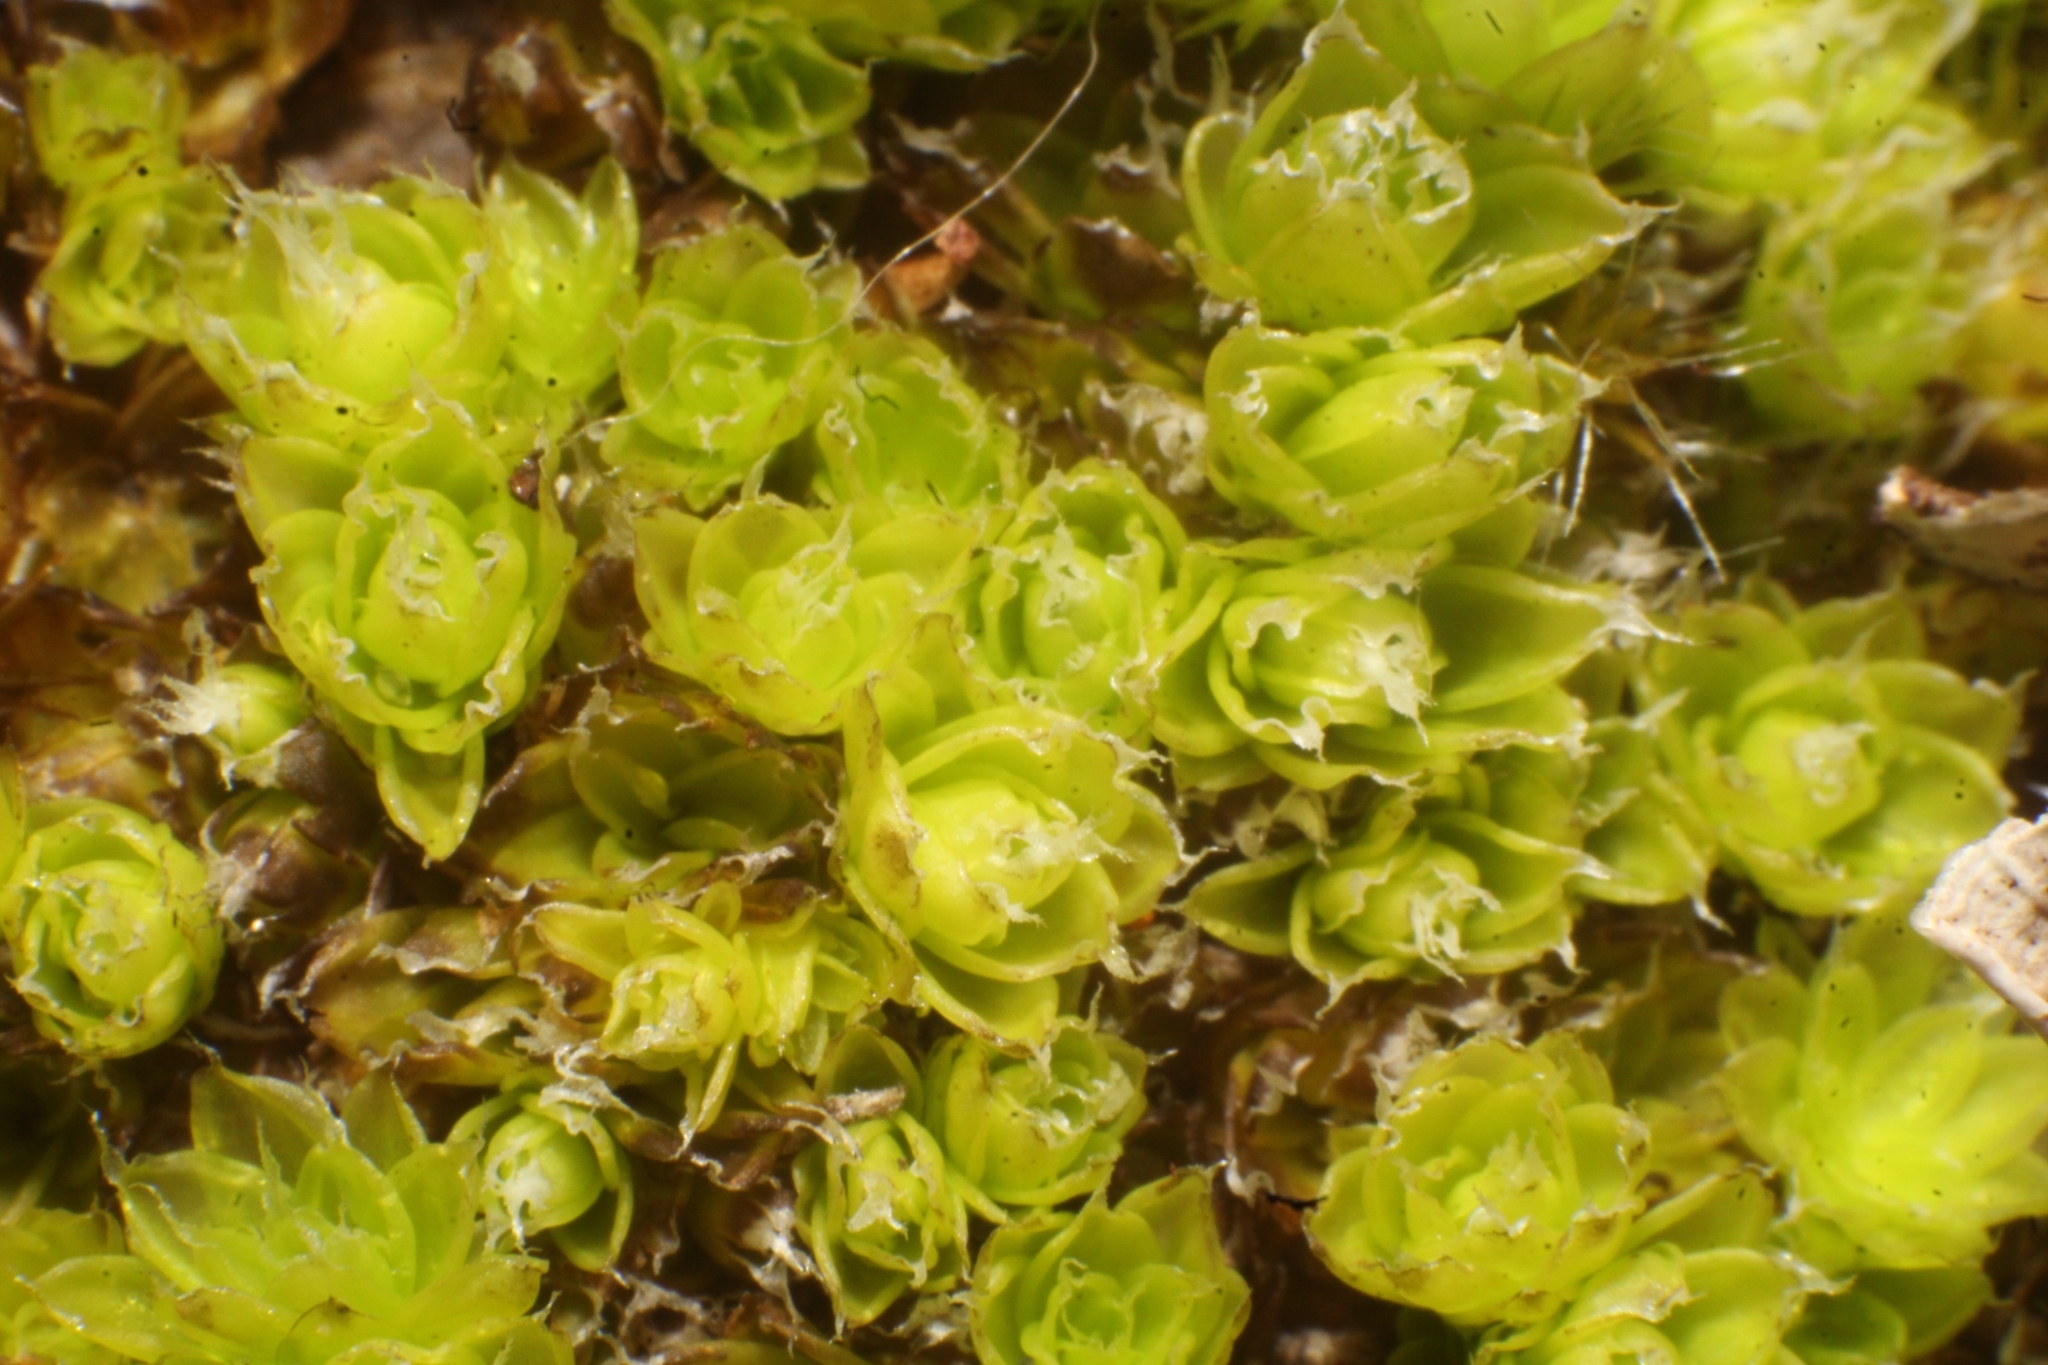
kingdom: Plantae
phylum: Bryophyta
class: Bryopsida
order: Pottiales
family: Pleurophascaceae
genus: Pleurophascum
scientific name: Pleurophascum occidentale
